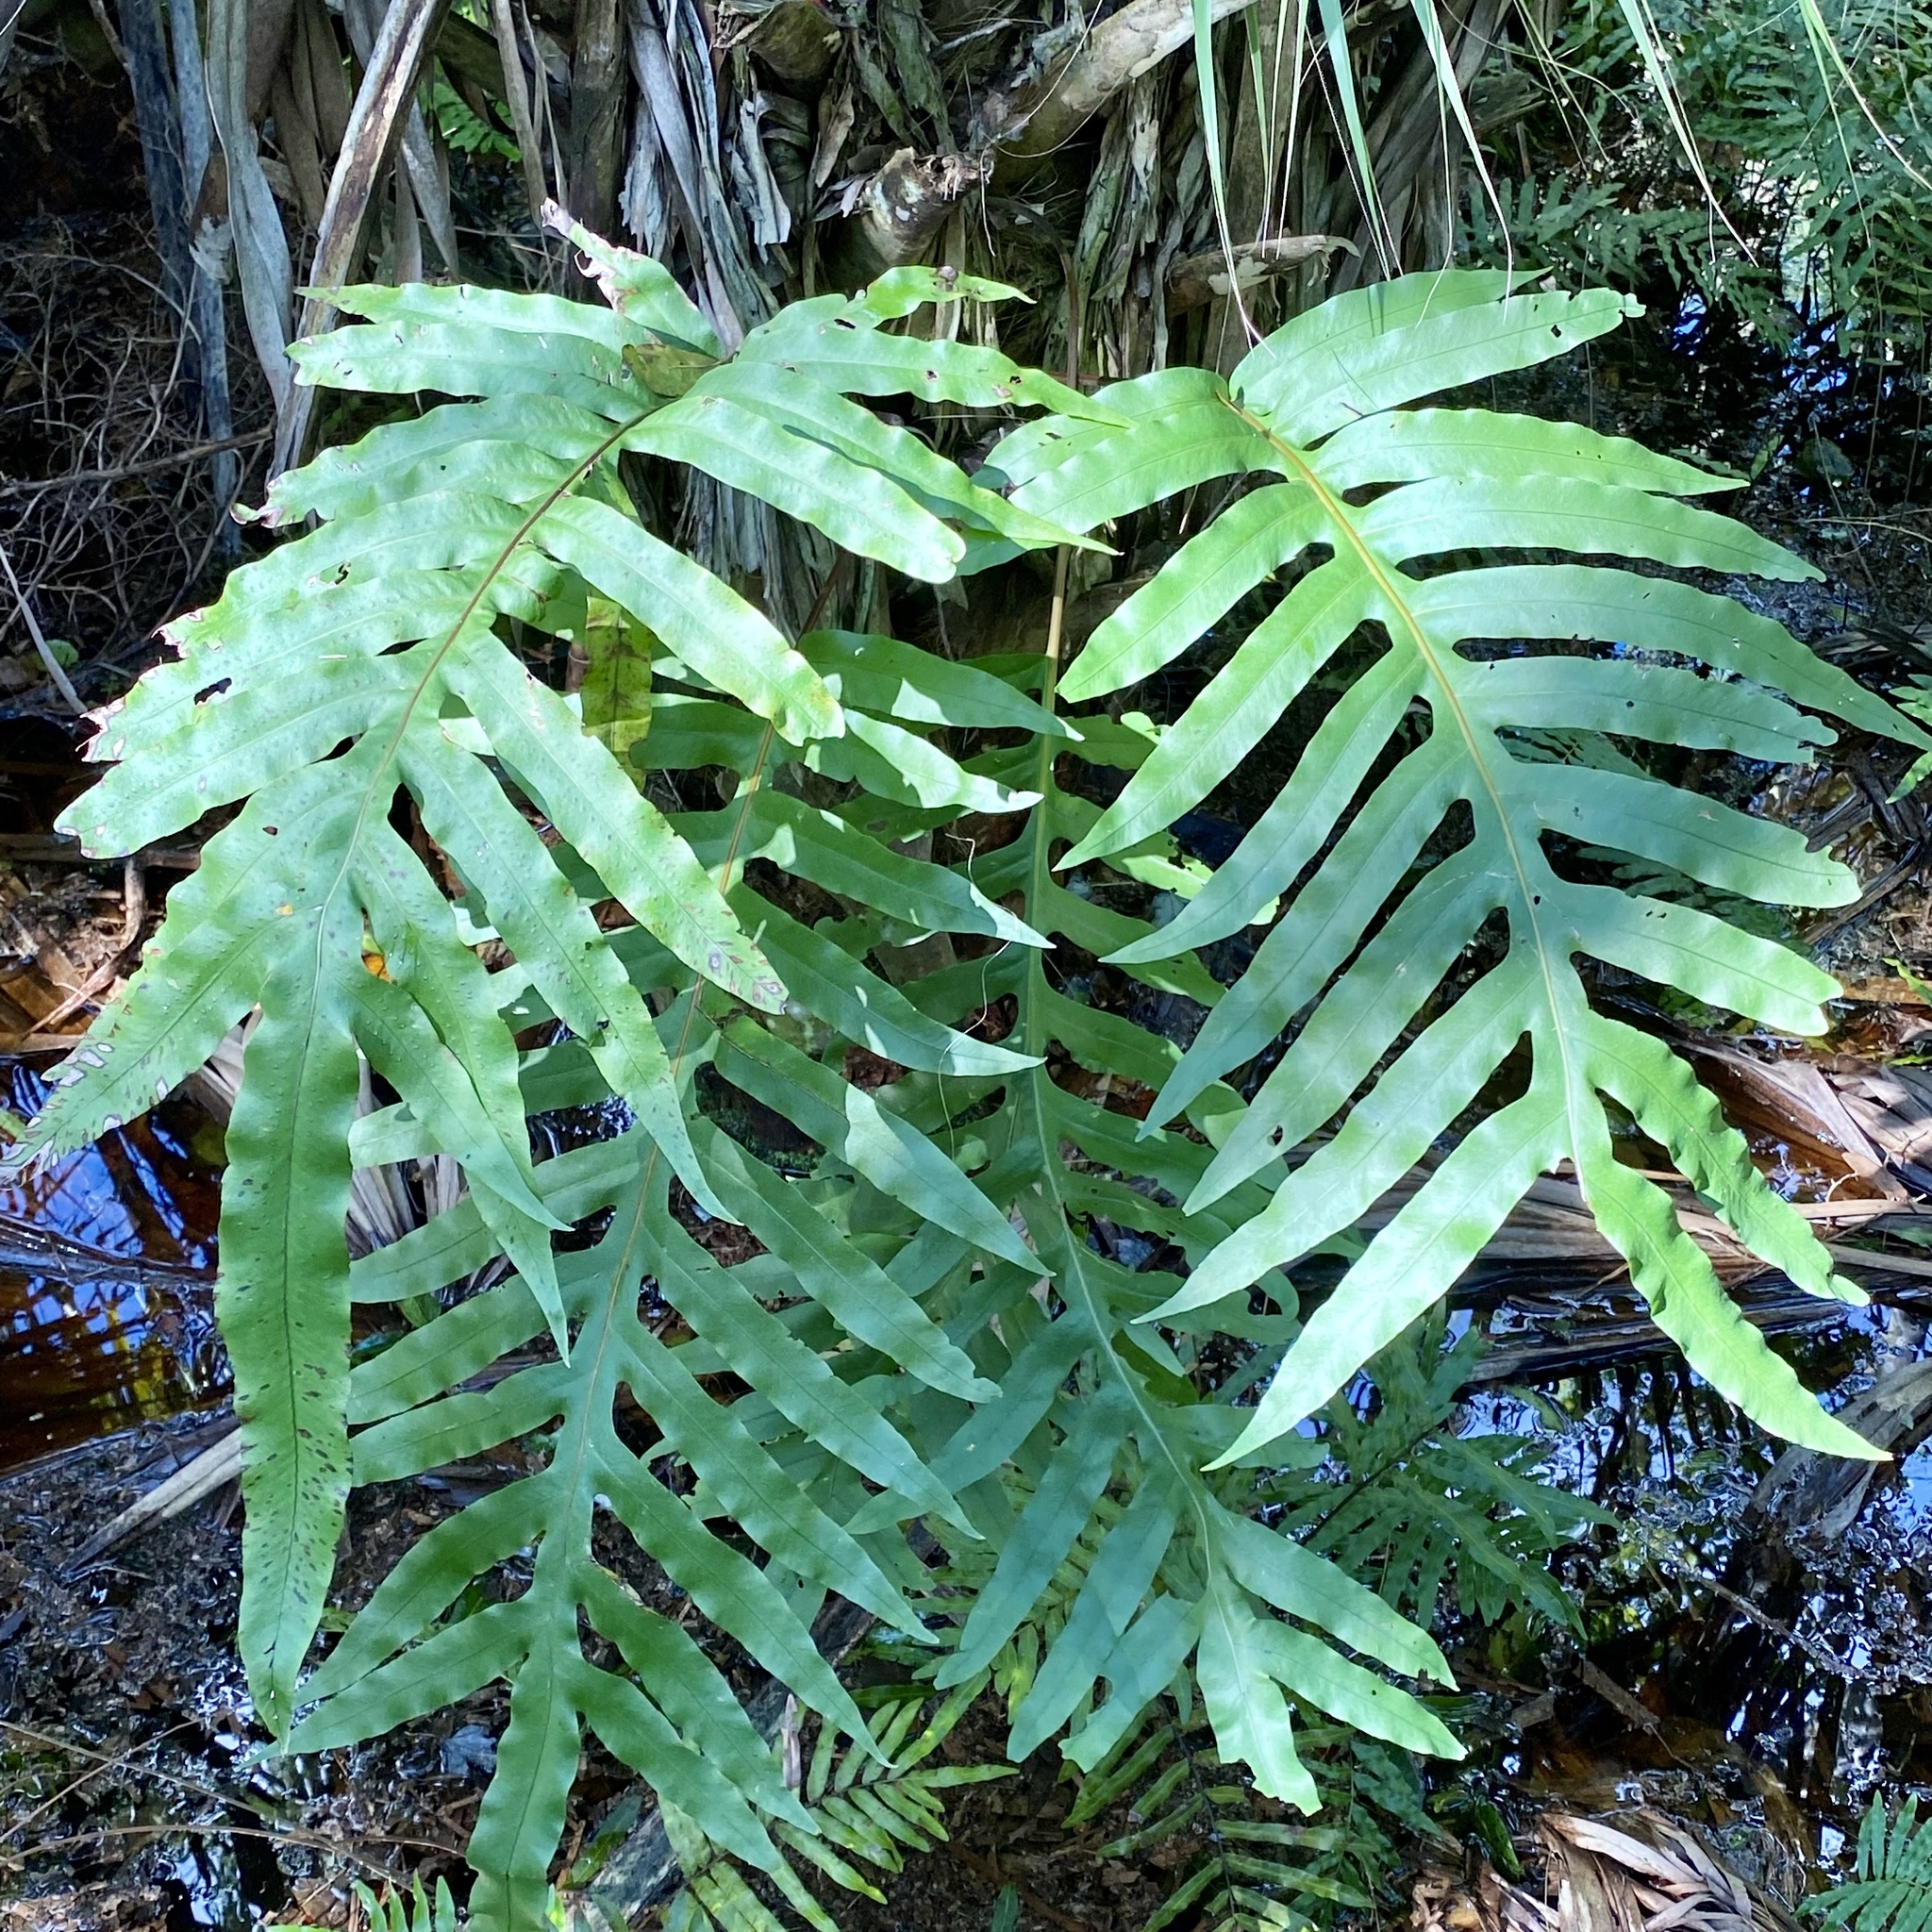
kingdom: Plantae
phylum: Tracheophyta
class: Polypodiopsida
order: Polypodiales
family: Polypodiaceae
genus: Phlebodium
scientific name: Phlebodium aureum
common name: Gold-foot fern
